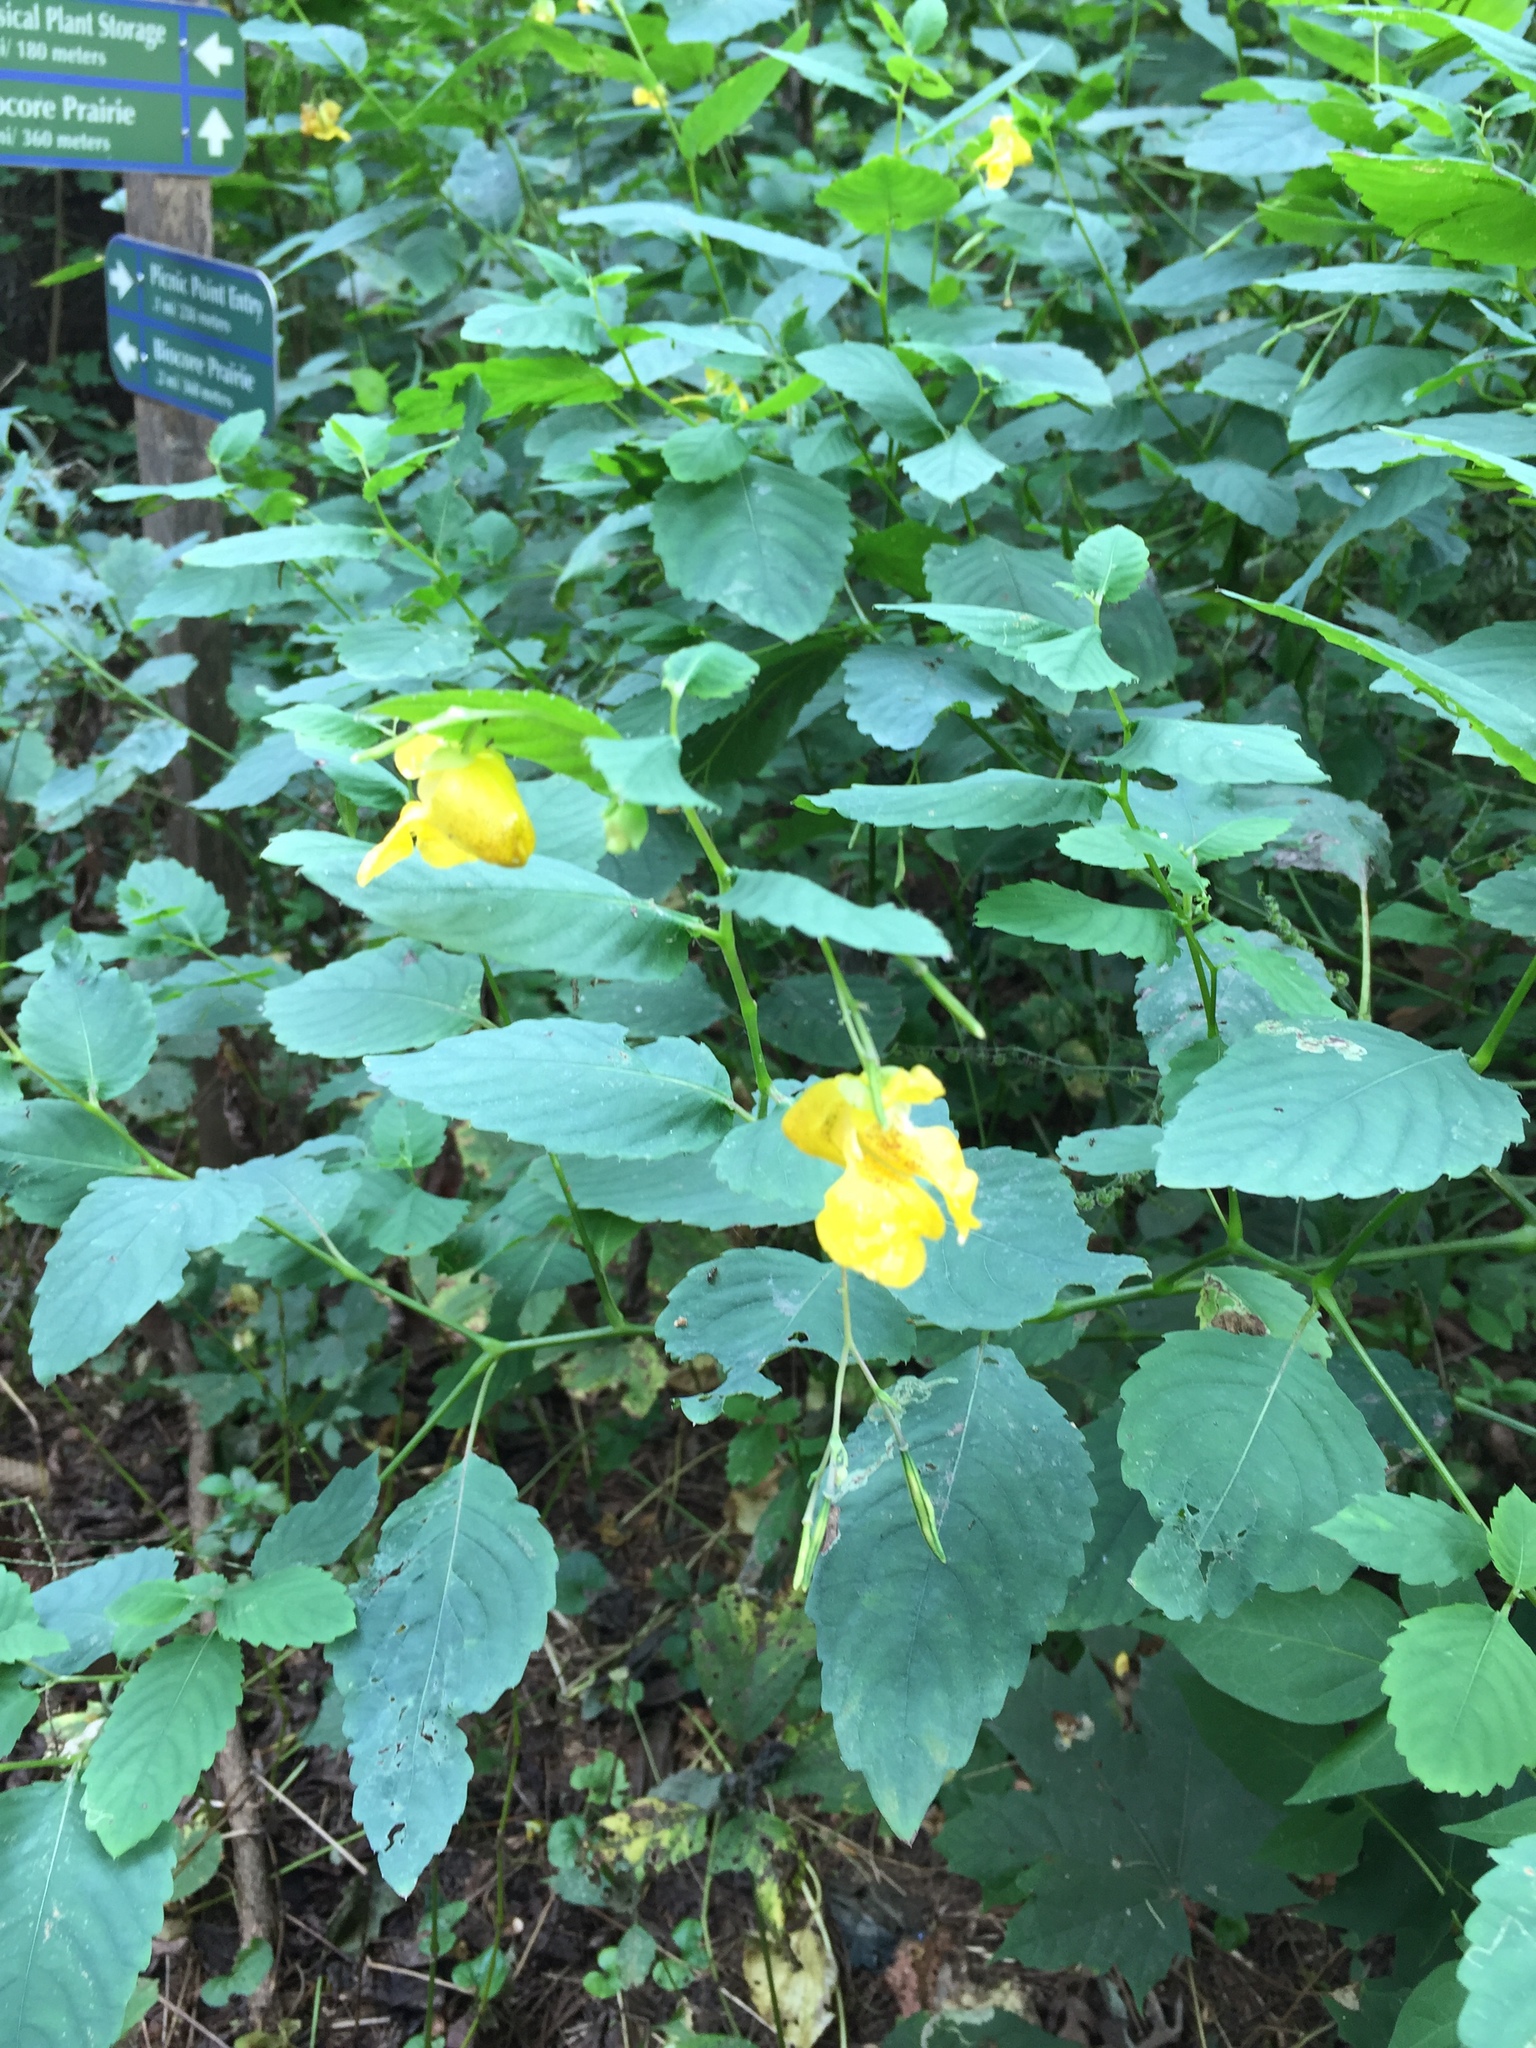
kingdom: Plantae
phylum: Tracheophyta
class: Magnoliopsida
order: Ericales
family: Balsaminaceae
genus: Impatiens
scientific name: Impatiens pallida
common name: Pale snapweed
